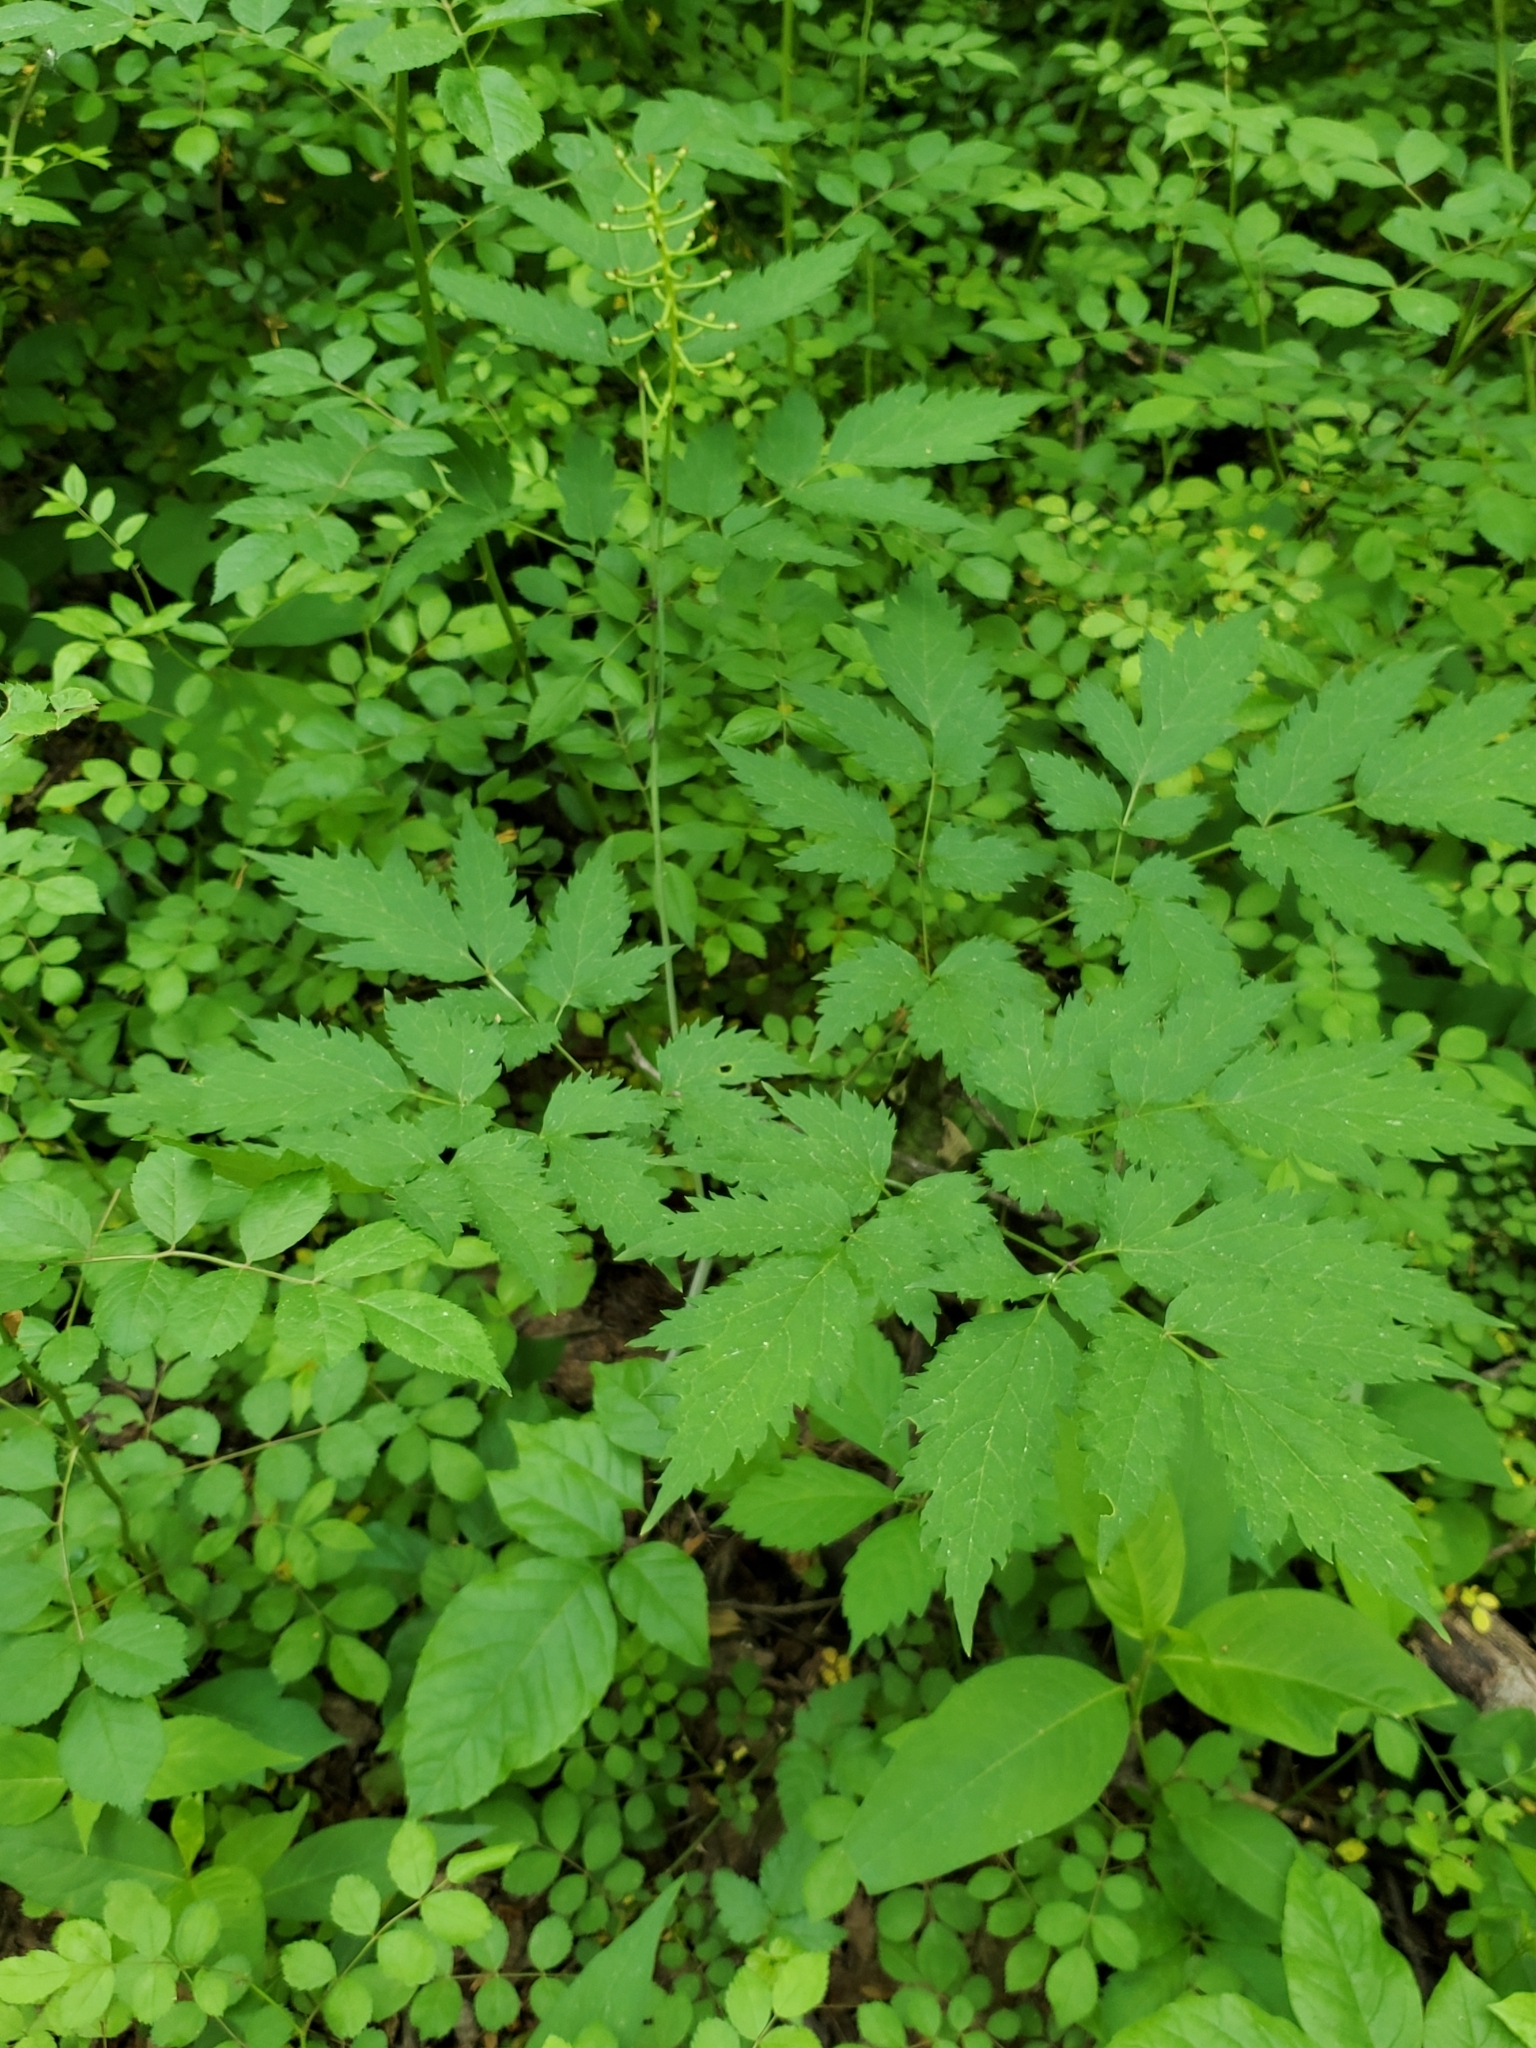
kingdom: Plantae
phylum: Tracheophyta
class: Magnoliopsida
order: Ranunculales
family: Ranunculaceae
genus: Actaea
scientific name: Actaea pachypoda
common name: Doll's-eyes
